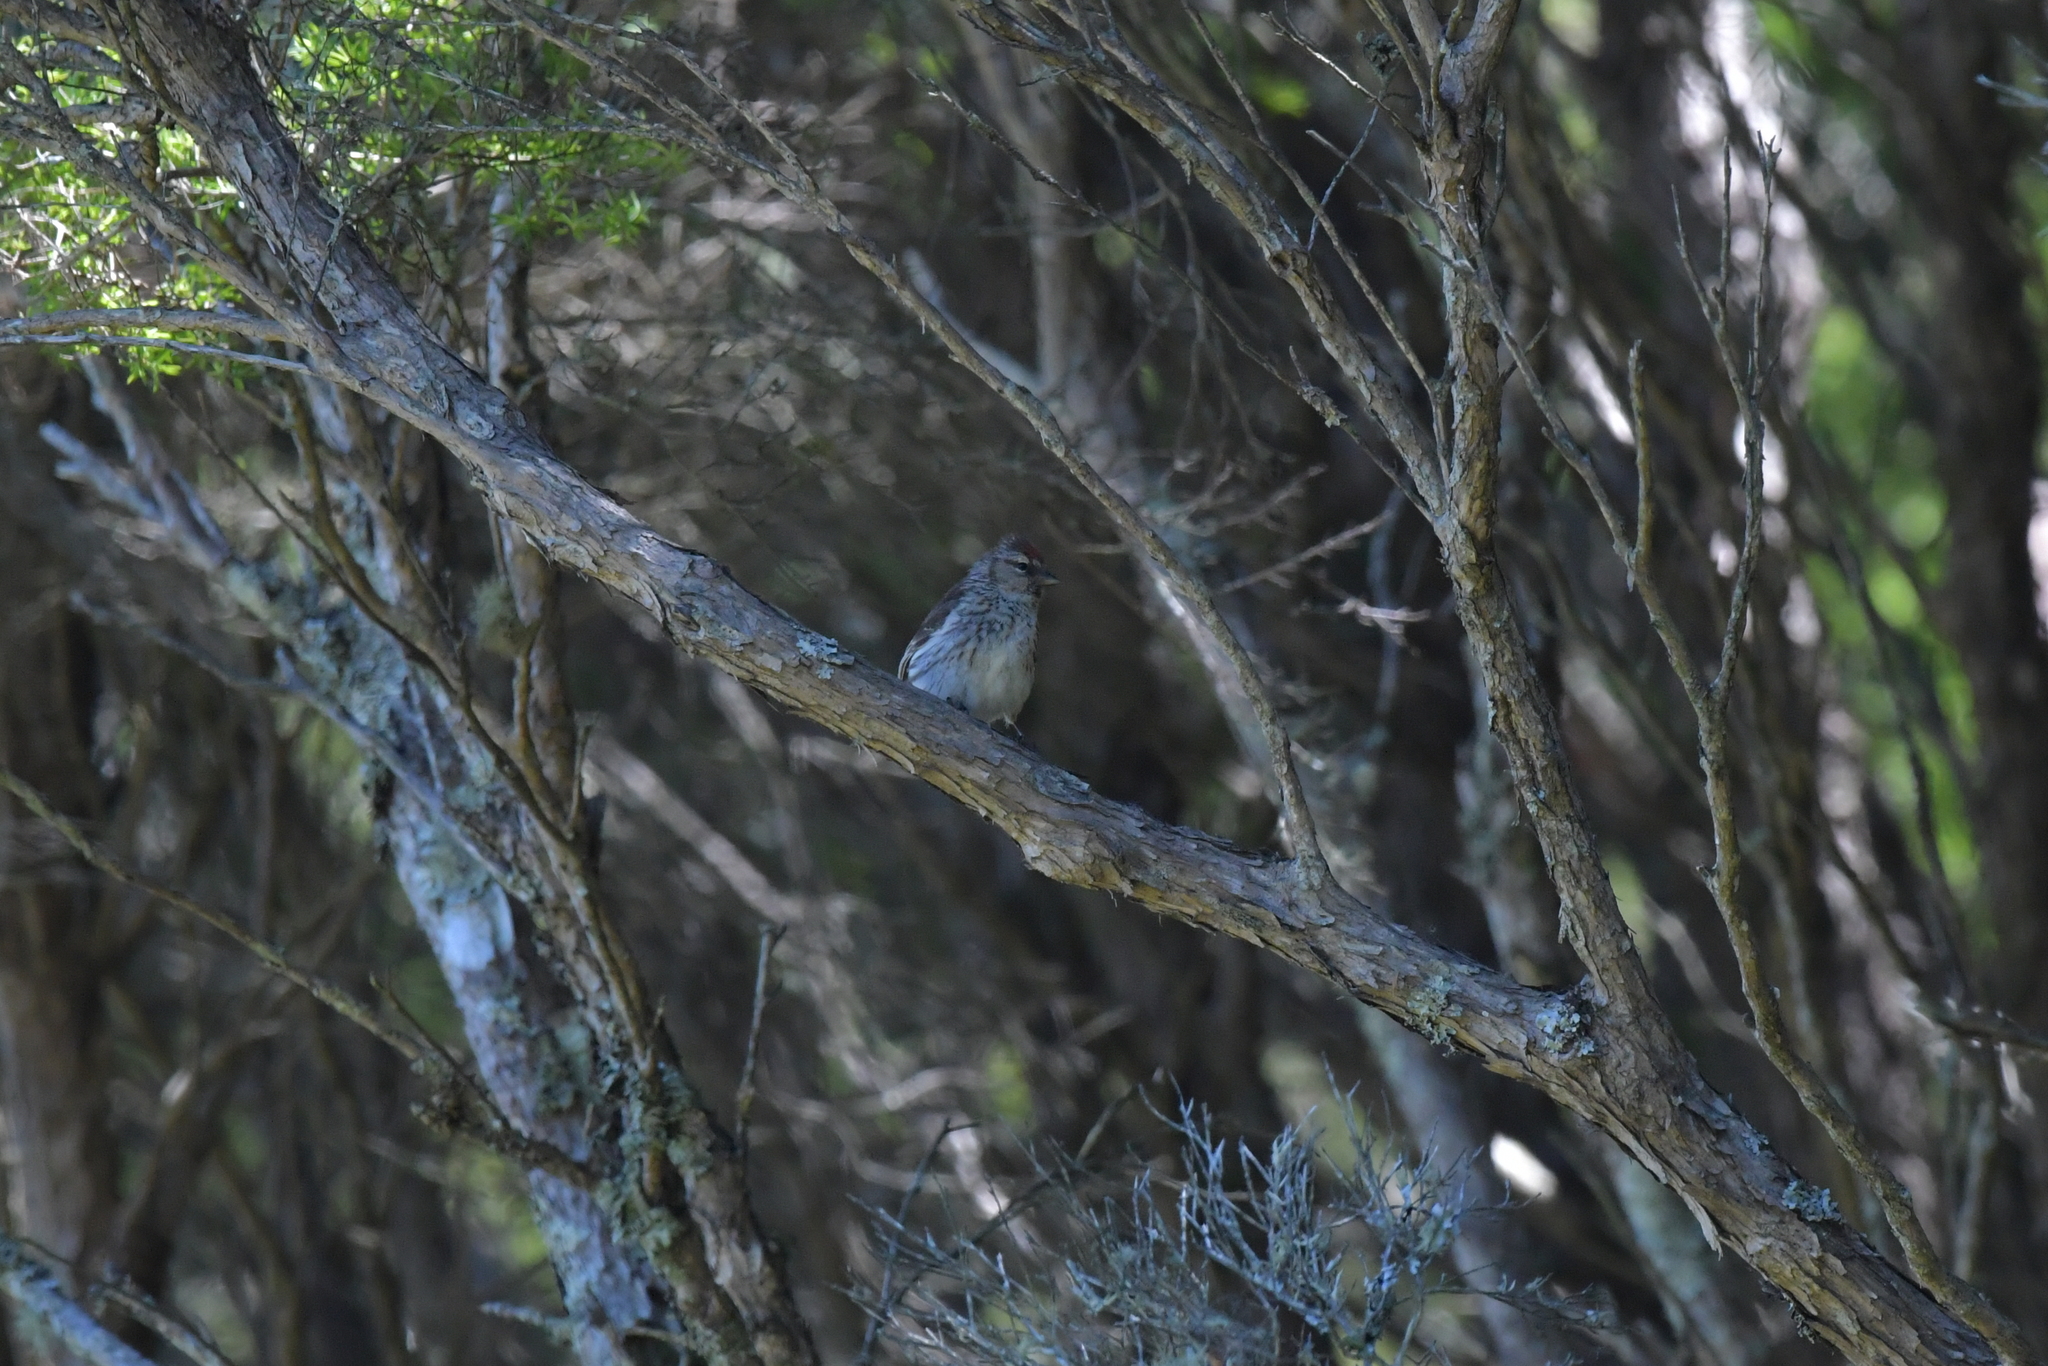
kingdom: Animalia
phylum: Chordata
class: Aves
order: Passeriformes
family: Fringillidae
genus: Acanthis
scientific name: Acanthis flammea
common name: Common redpoll
